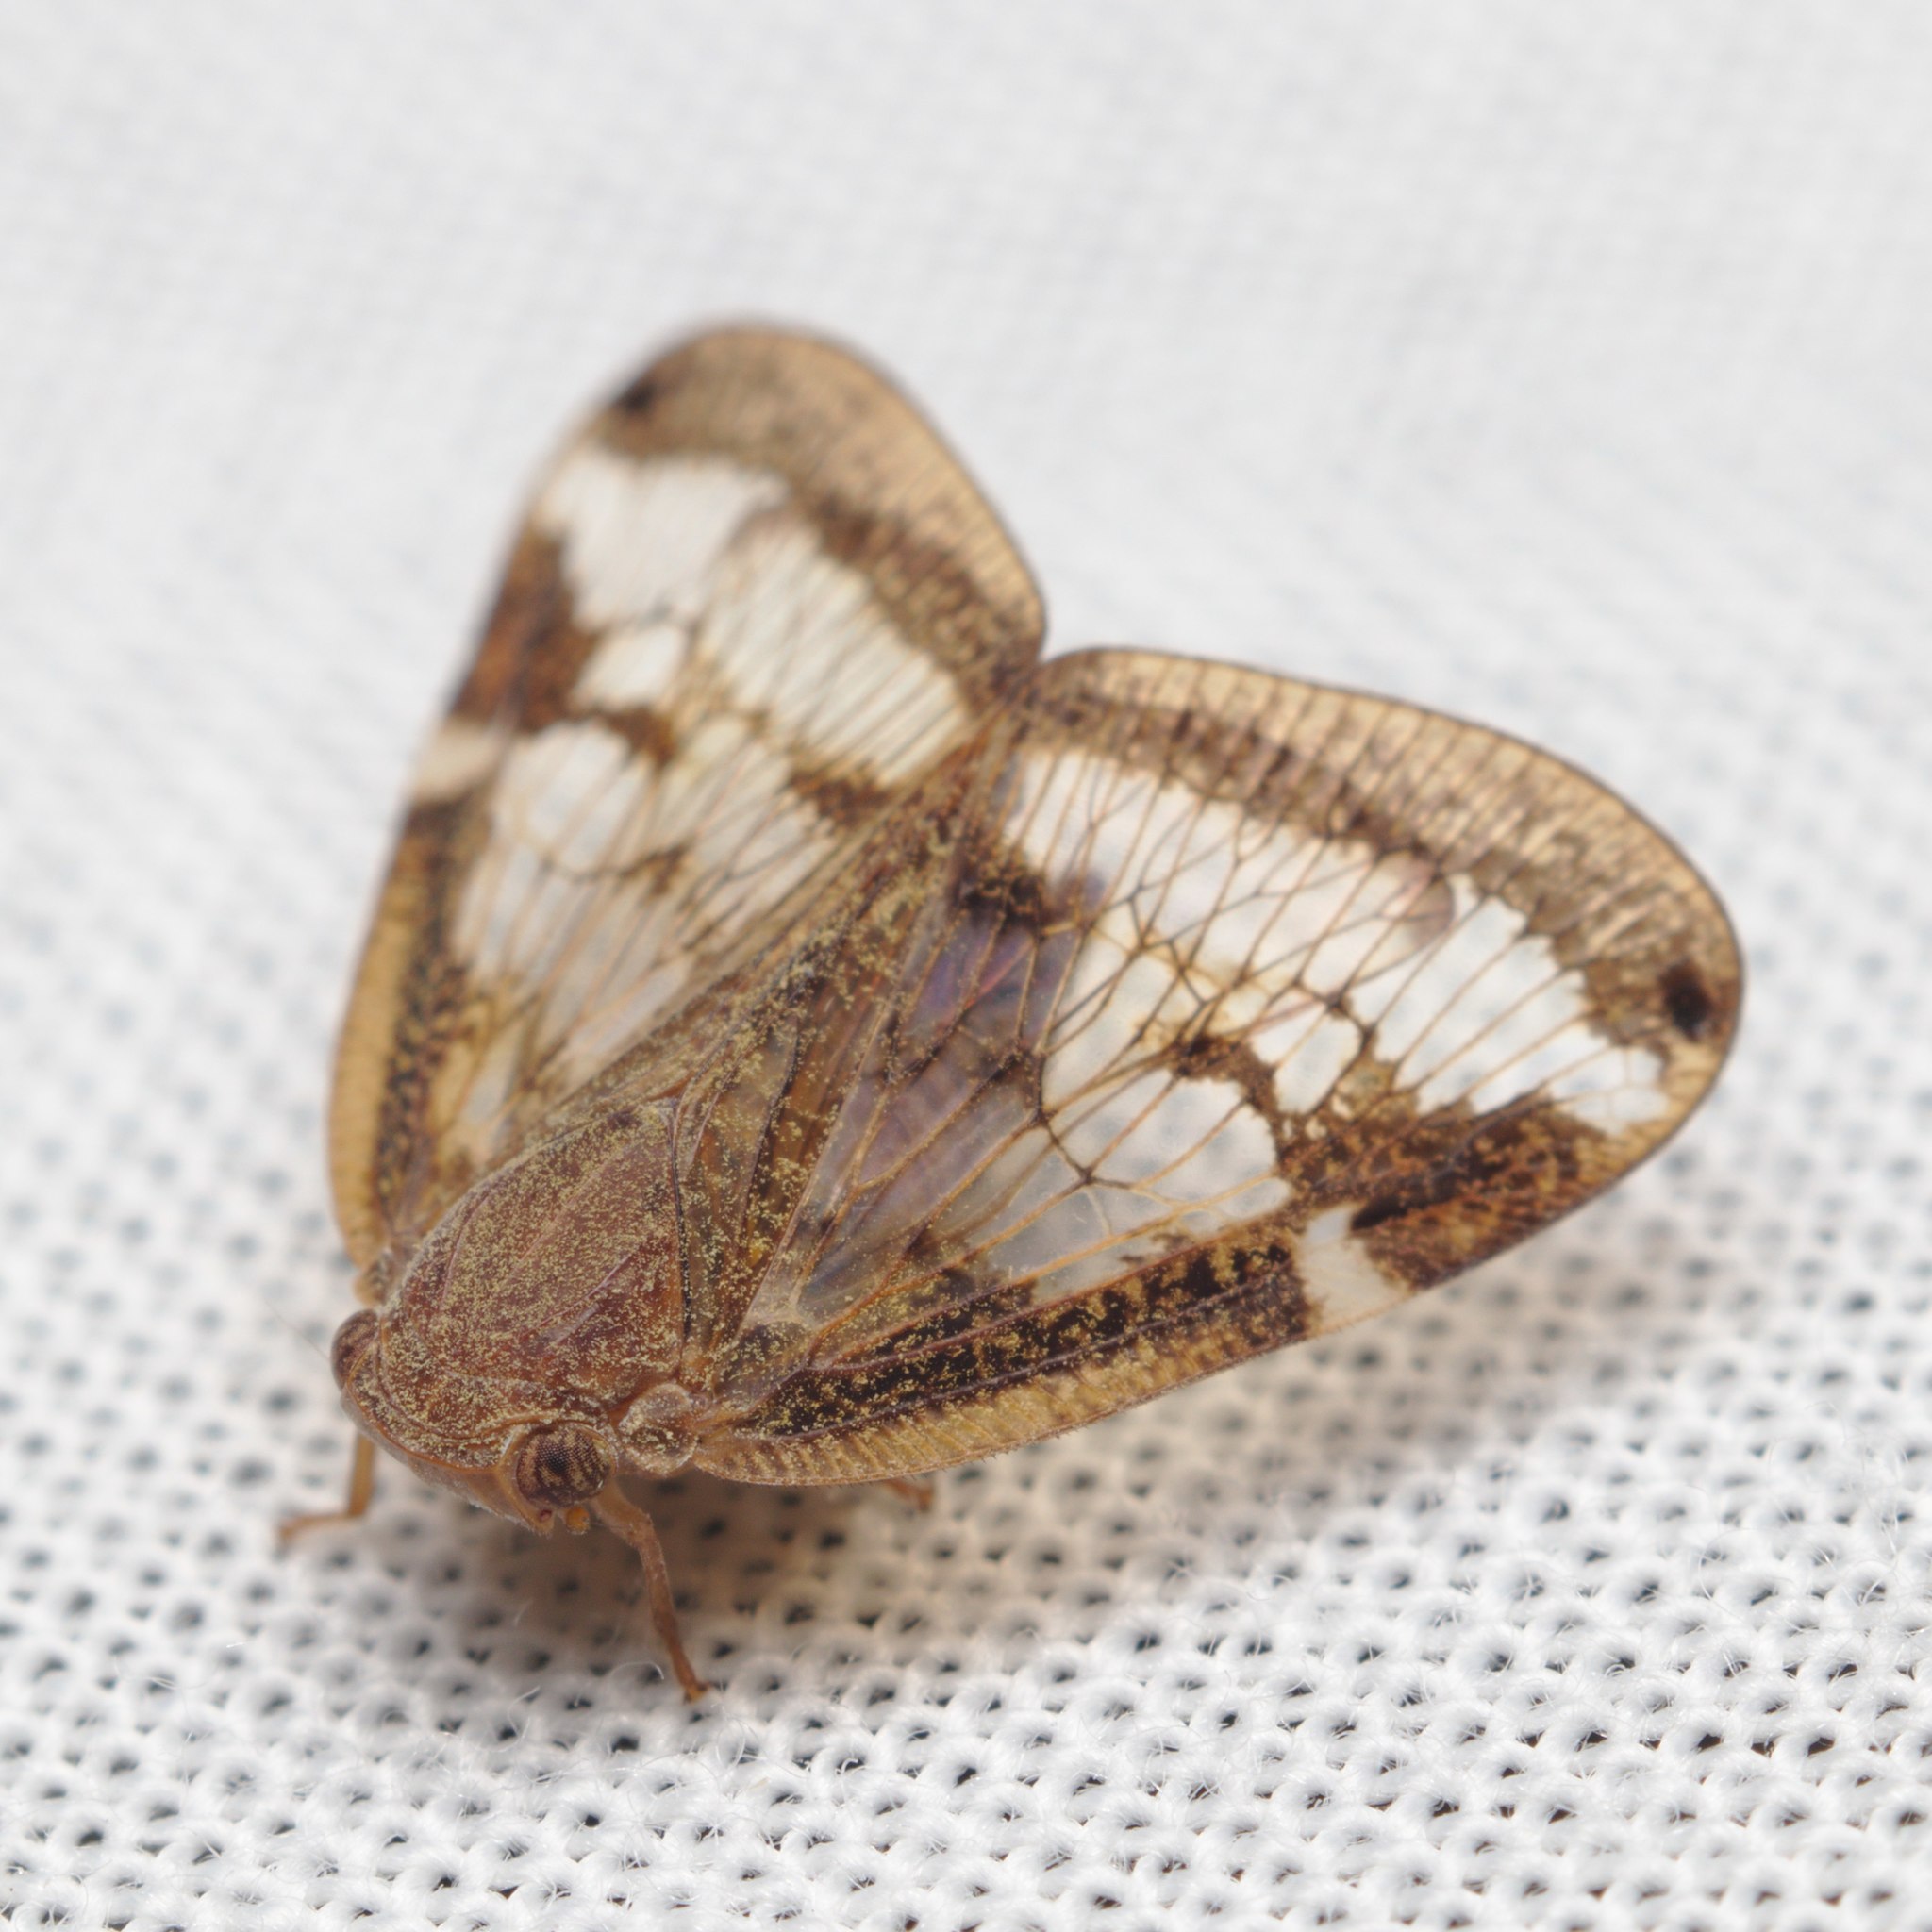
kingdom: Animalia
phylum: Arthropoda
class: Insecta
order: Hemiptera
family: Ricaniidae
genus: Scolypopa
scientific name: Scolypopa australis
